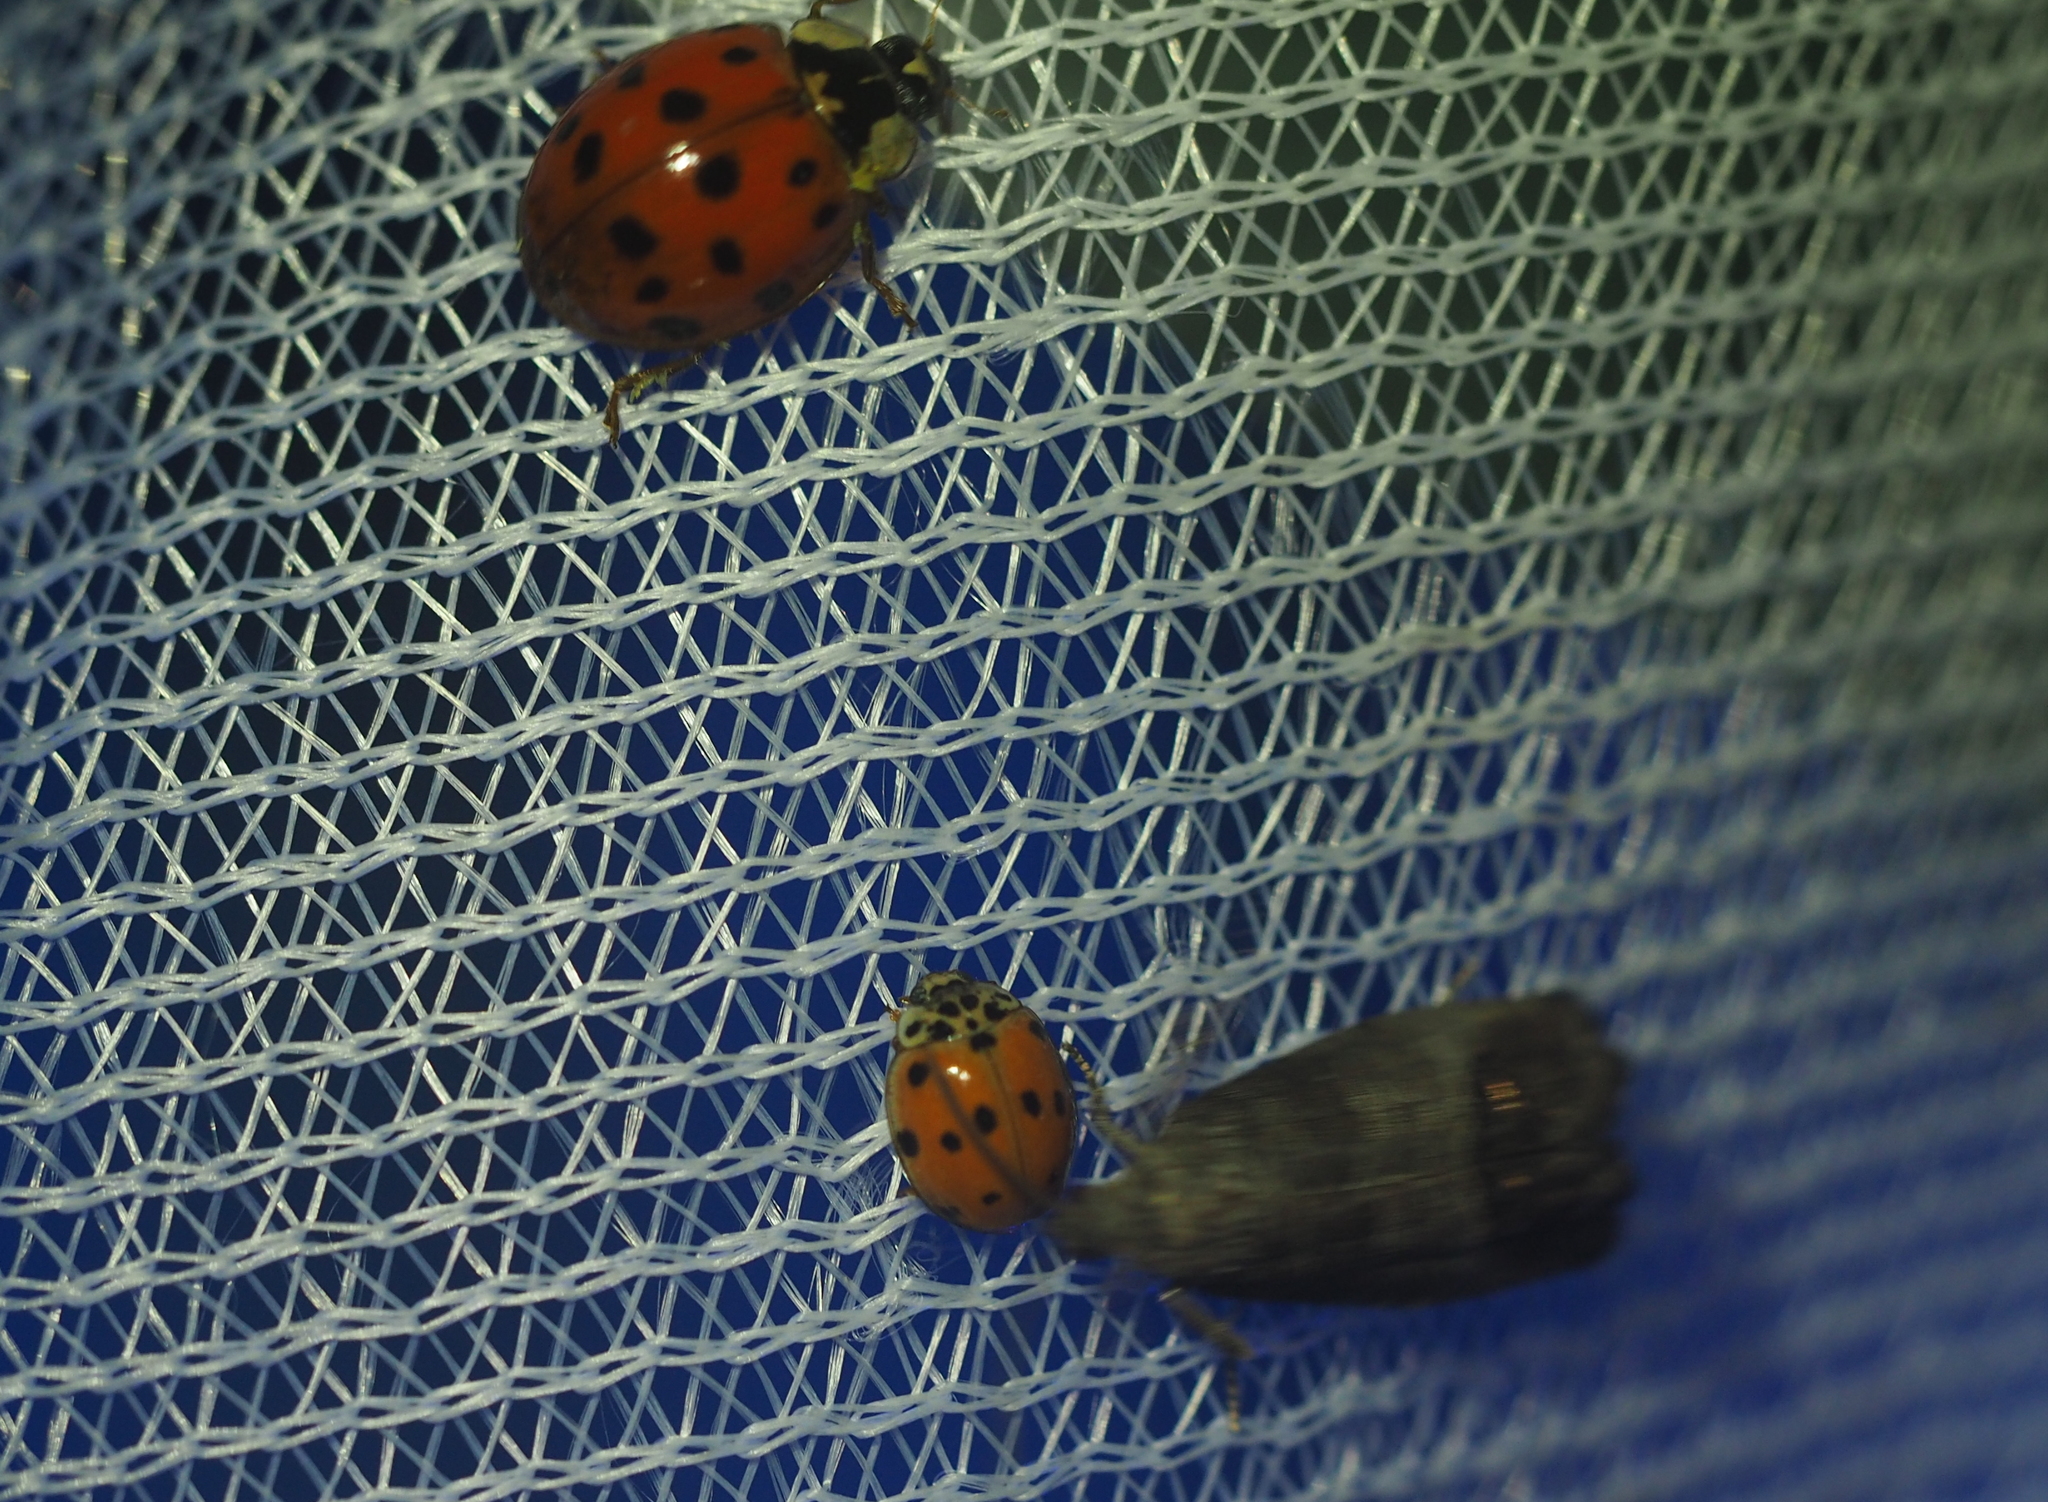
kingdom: Animalia
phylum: Arthropoda
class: Insecta
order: Coleoptera
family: Coccinellidae
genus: Adalia
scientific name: Adalia decempunctata
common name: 10-spot ladybird
